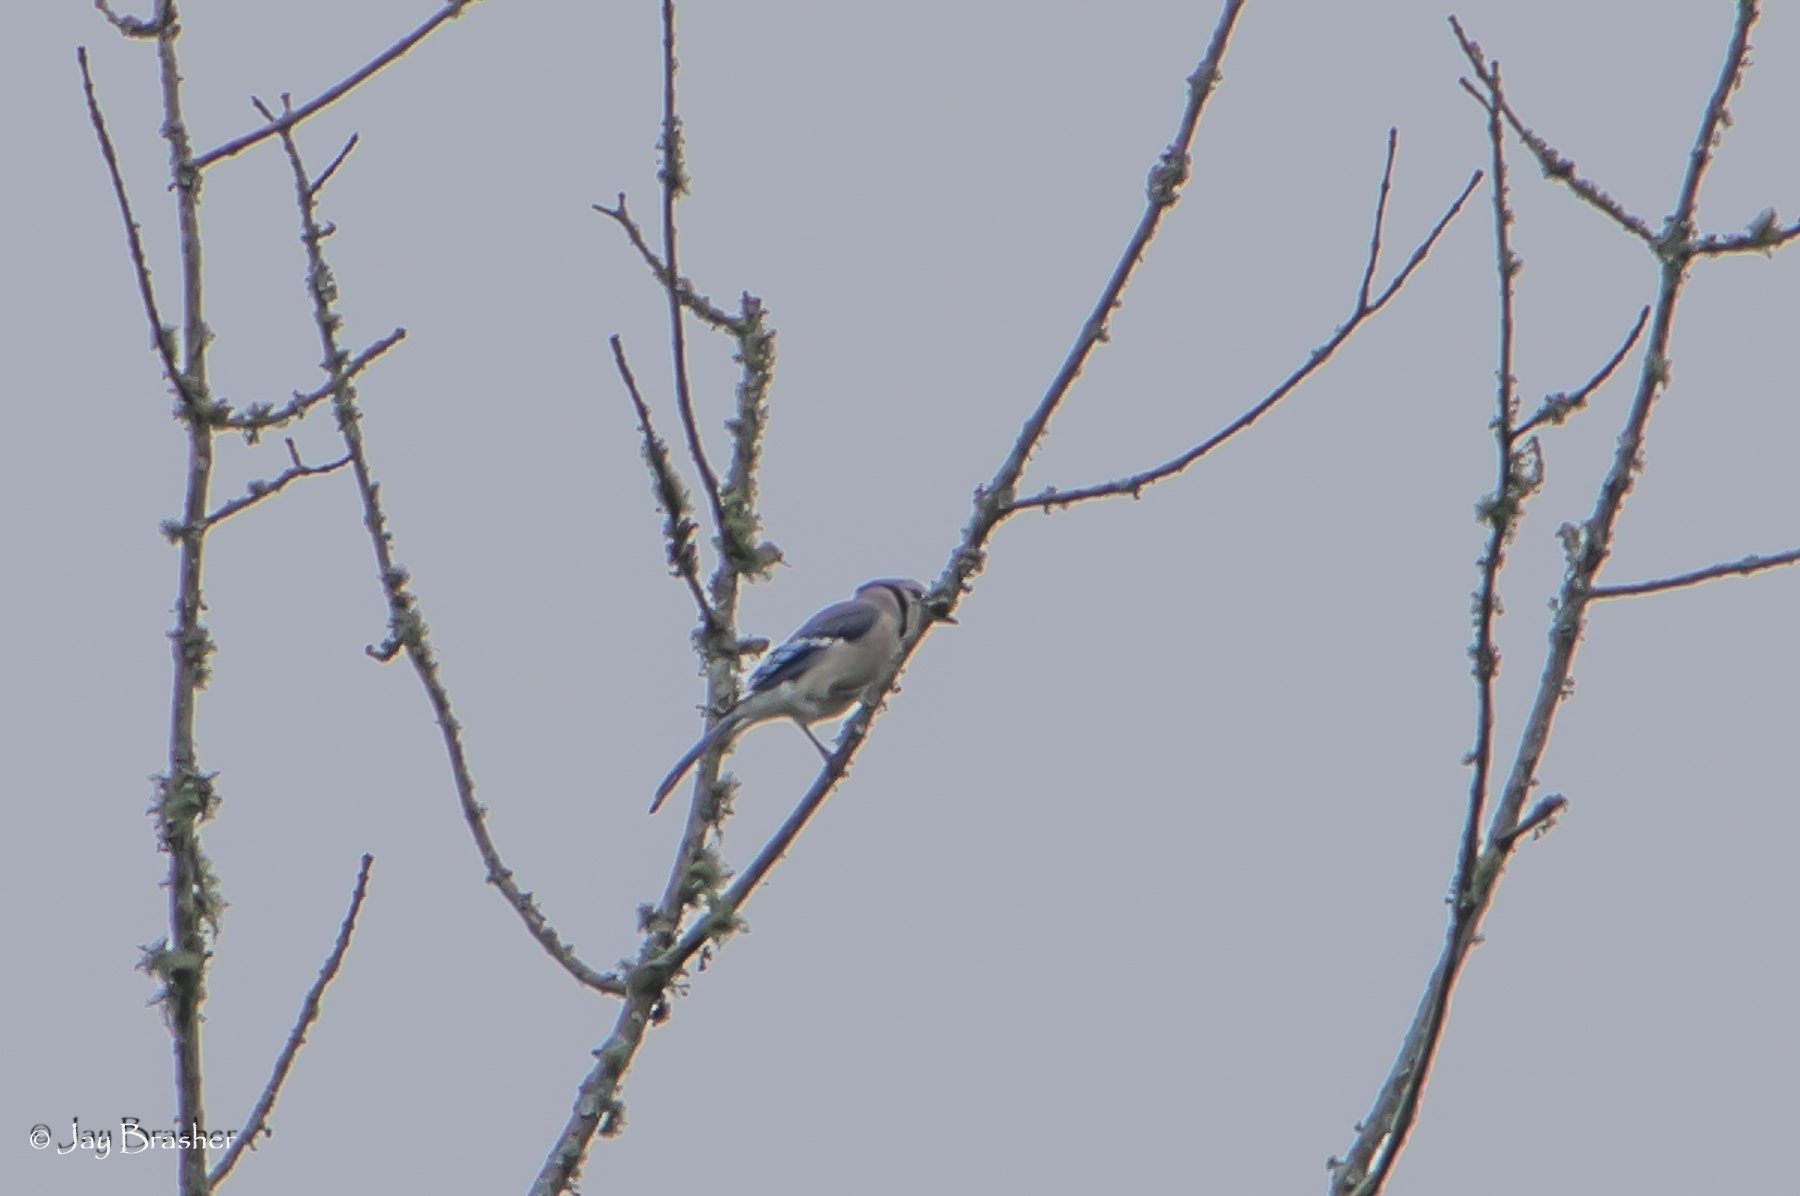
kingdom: Animalia
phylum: Chordata
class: Aves
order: Passeriformes
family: Corvidae
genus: Cyanocitta
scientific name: Cyanocitta cristata
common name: Blue jay
